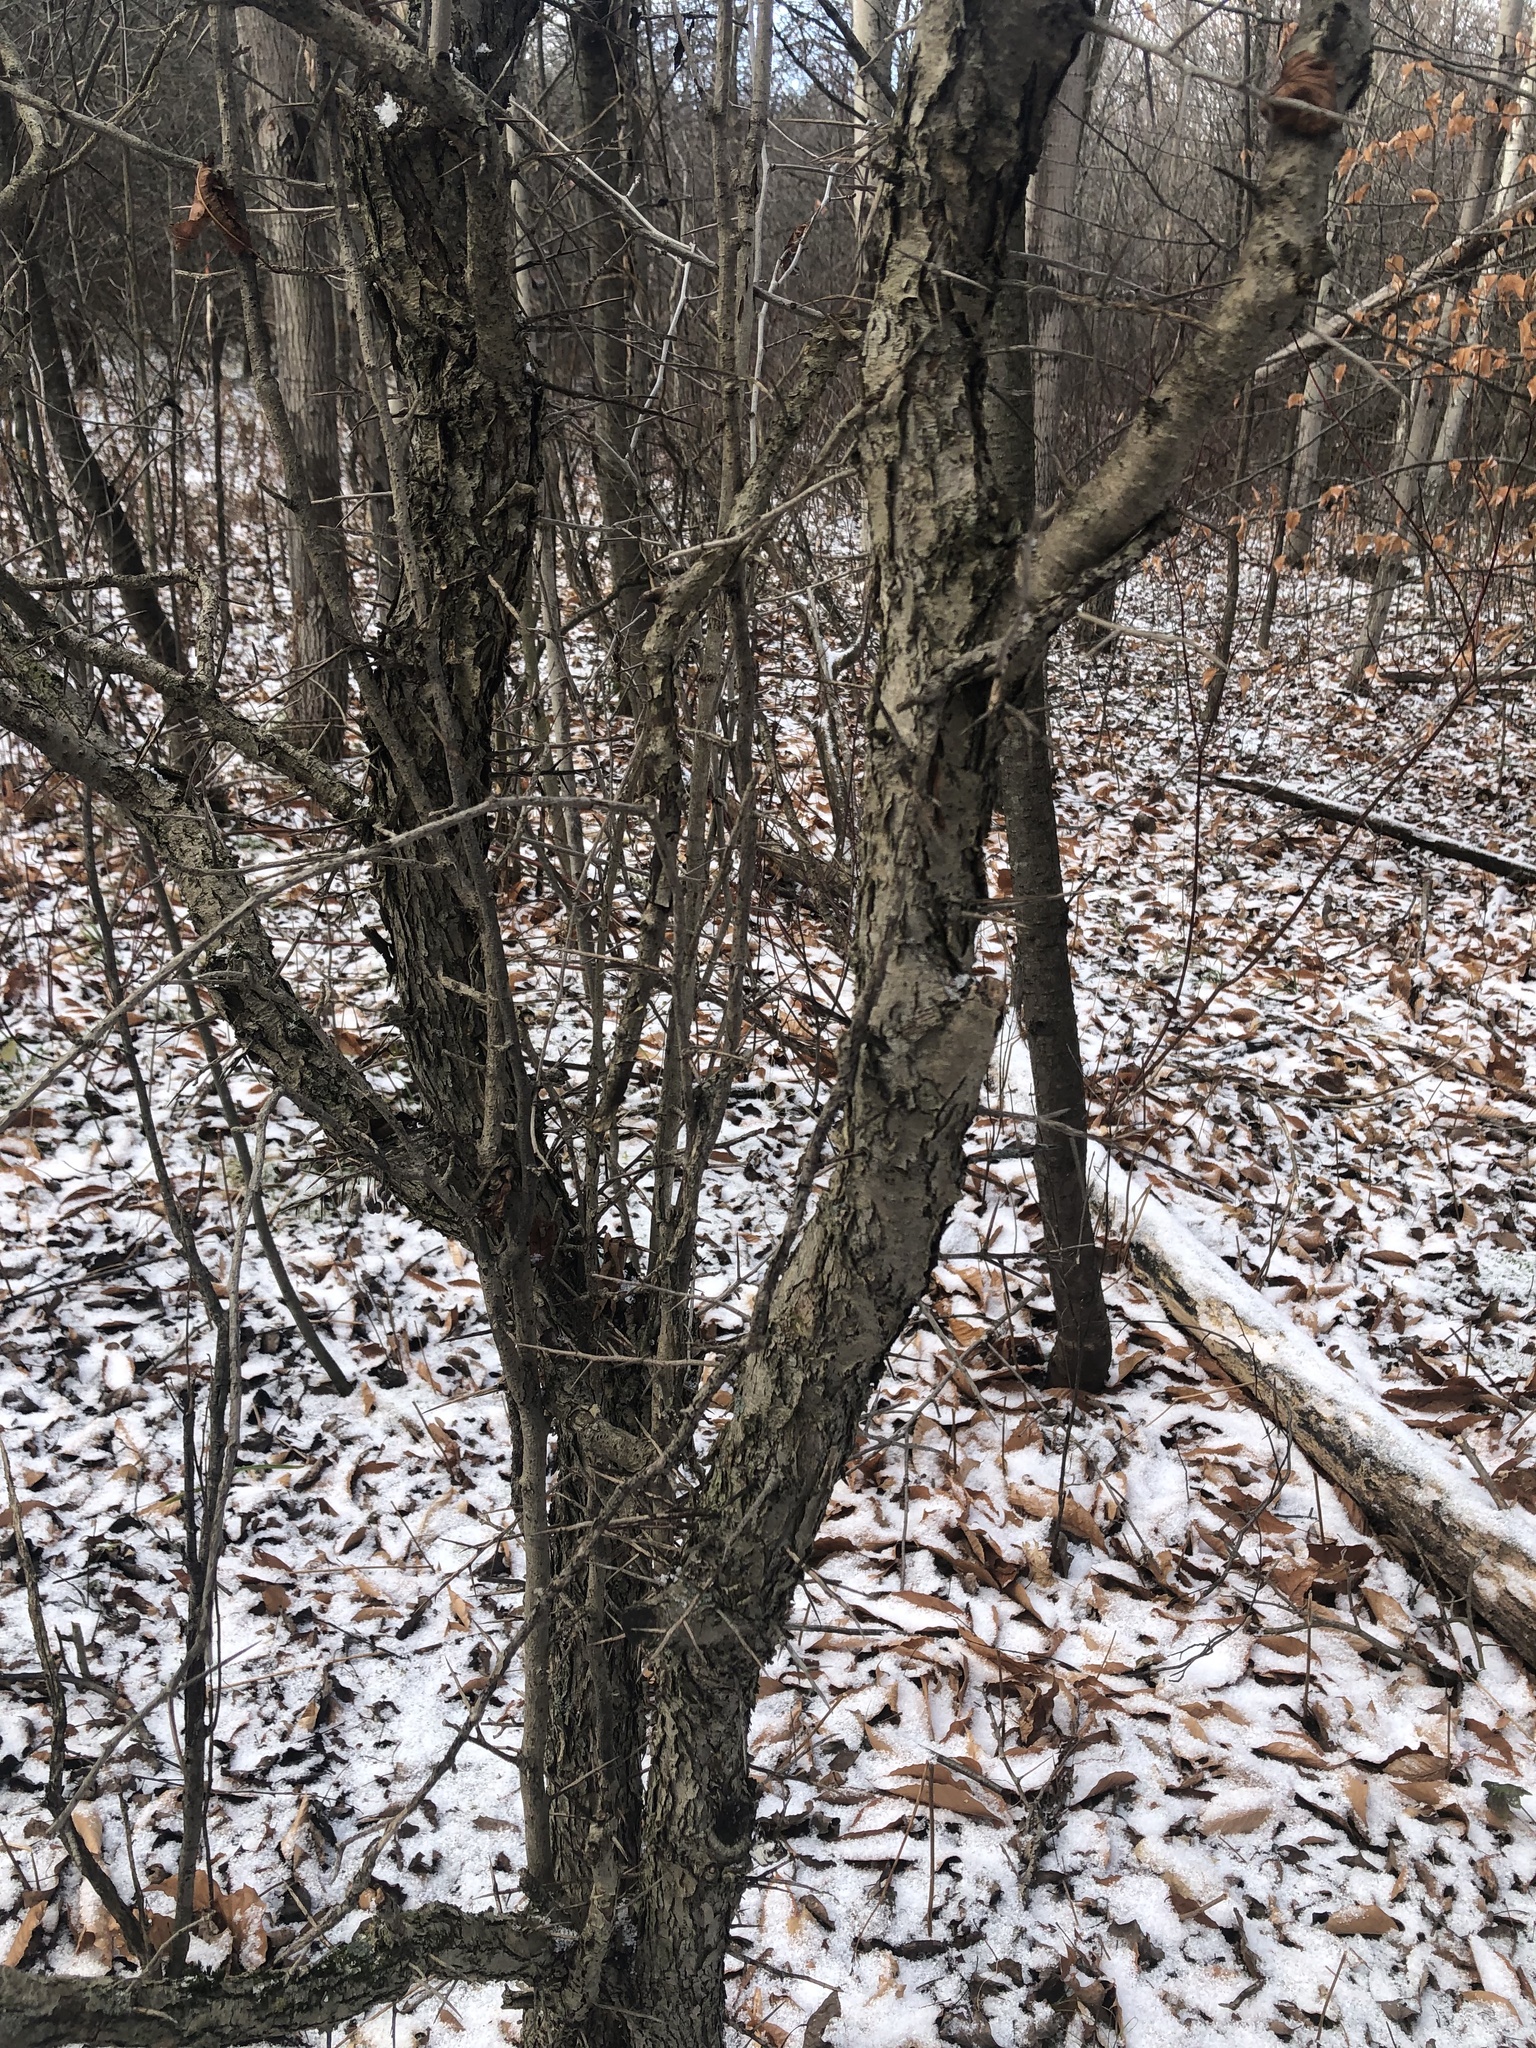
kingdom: Plantae
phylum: Tracheophyta
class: Magnoliopsida
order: Rosales
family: Rhamnaceae
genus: Rhamnus
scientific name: Rhamnus cathartica
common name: Common buckthorn
